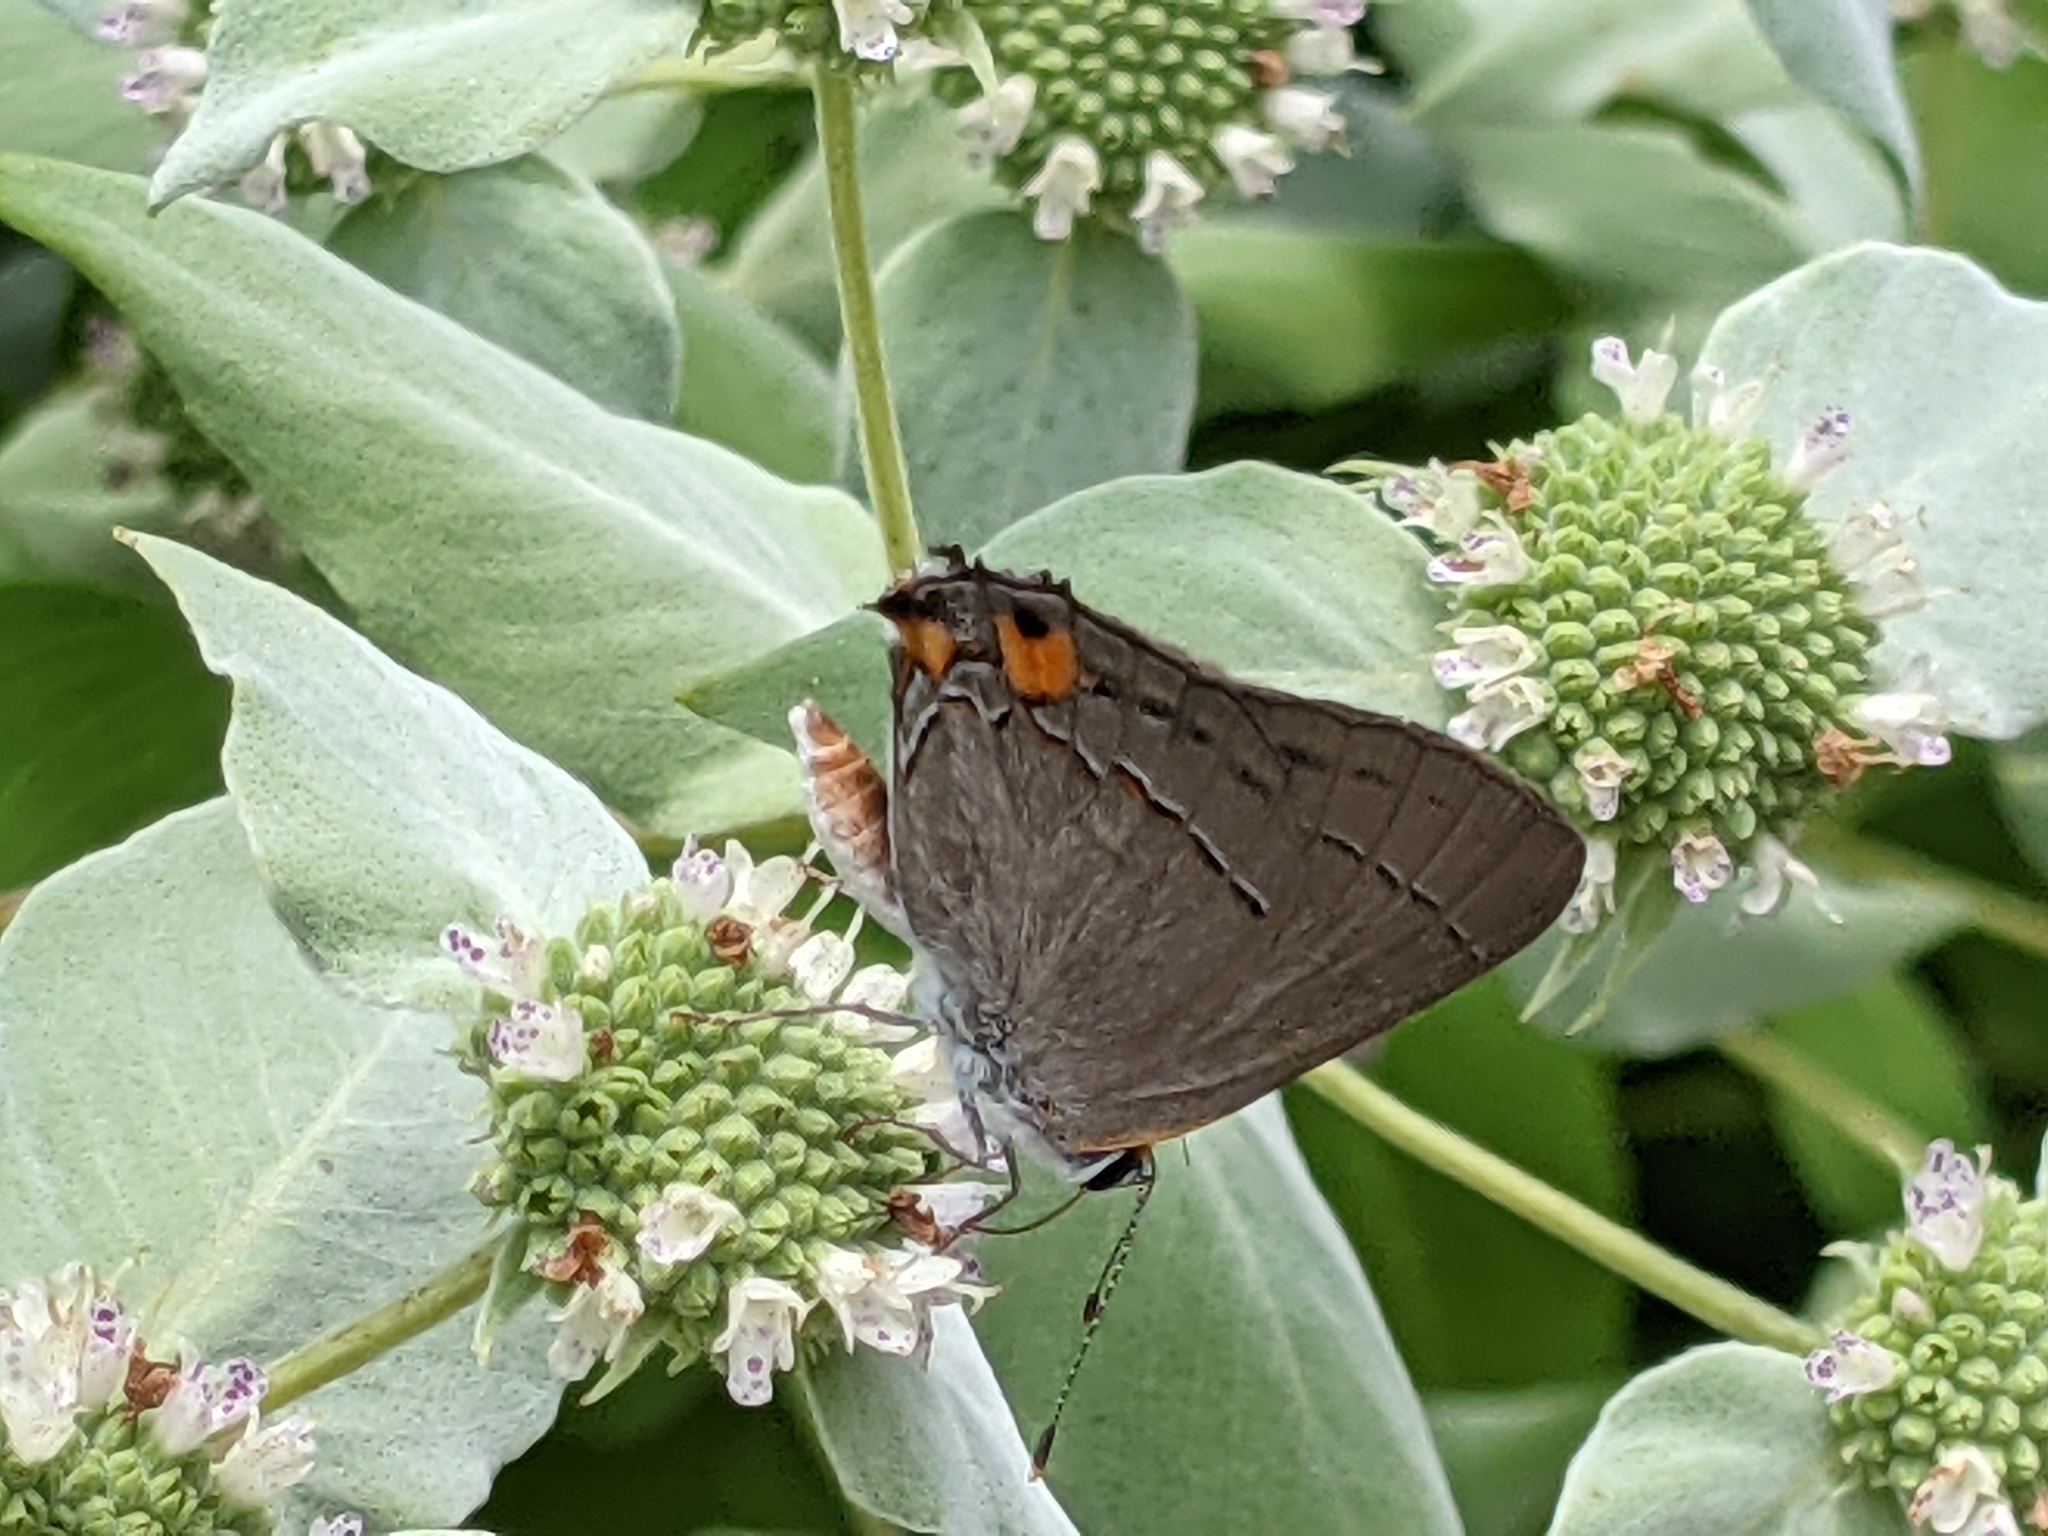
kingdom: Animalia
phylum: Arthropoda
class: Insecta
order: Lepidoptera
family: Lycaenidae
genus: Strymon
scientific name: Strymon melinus
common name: Gray hairstreak
